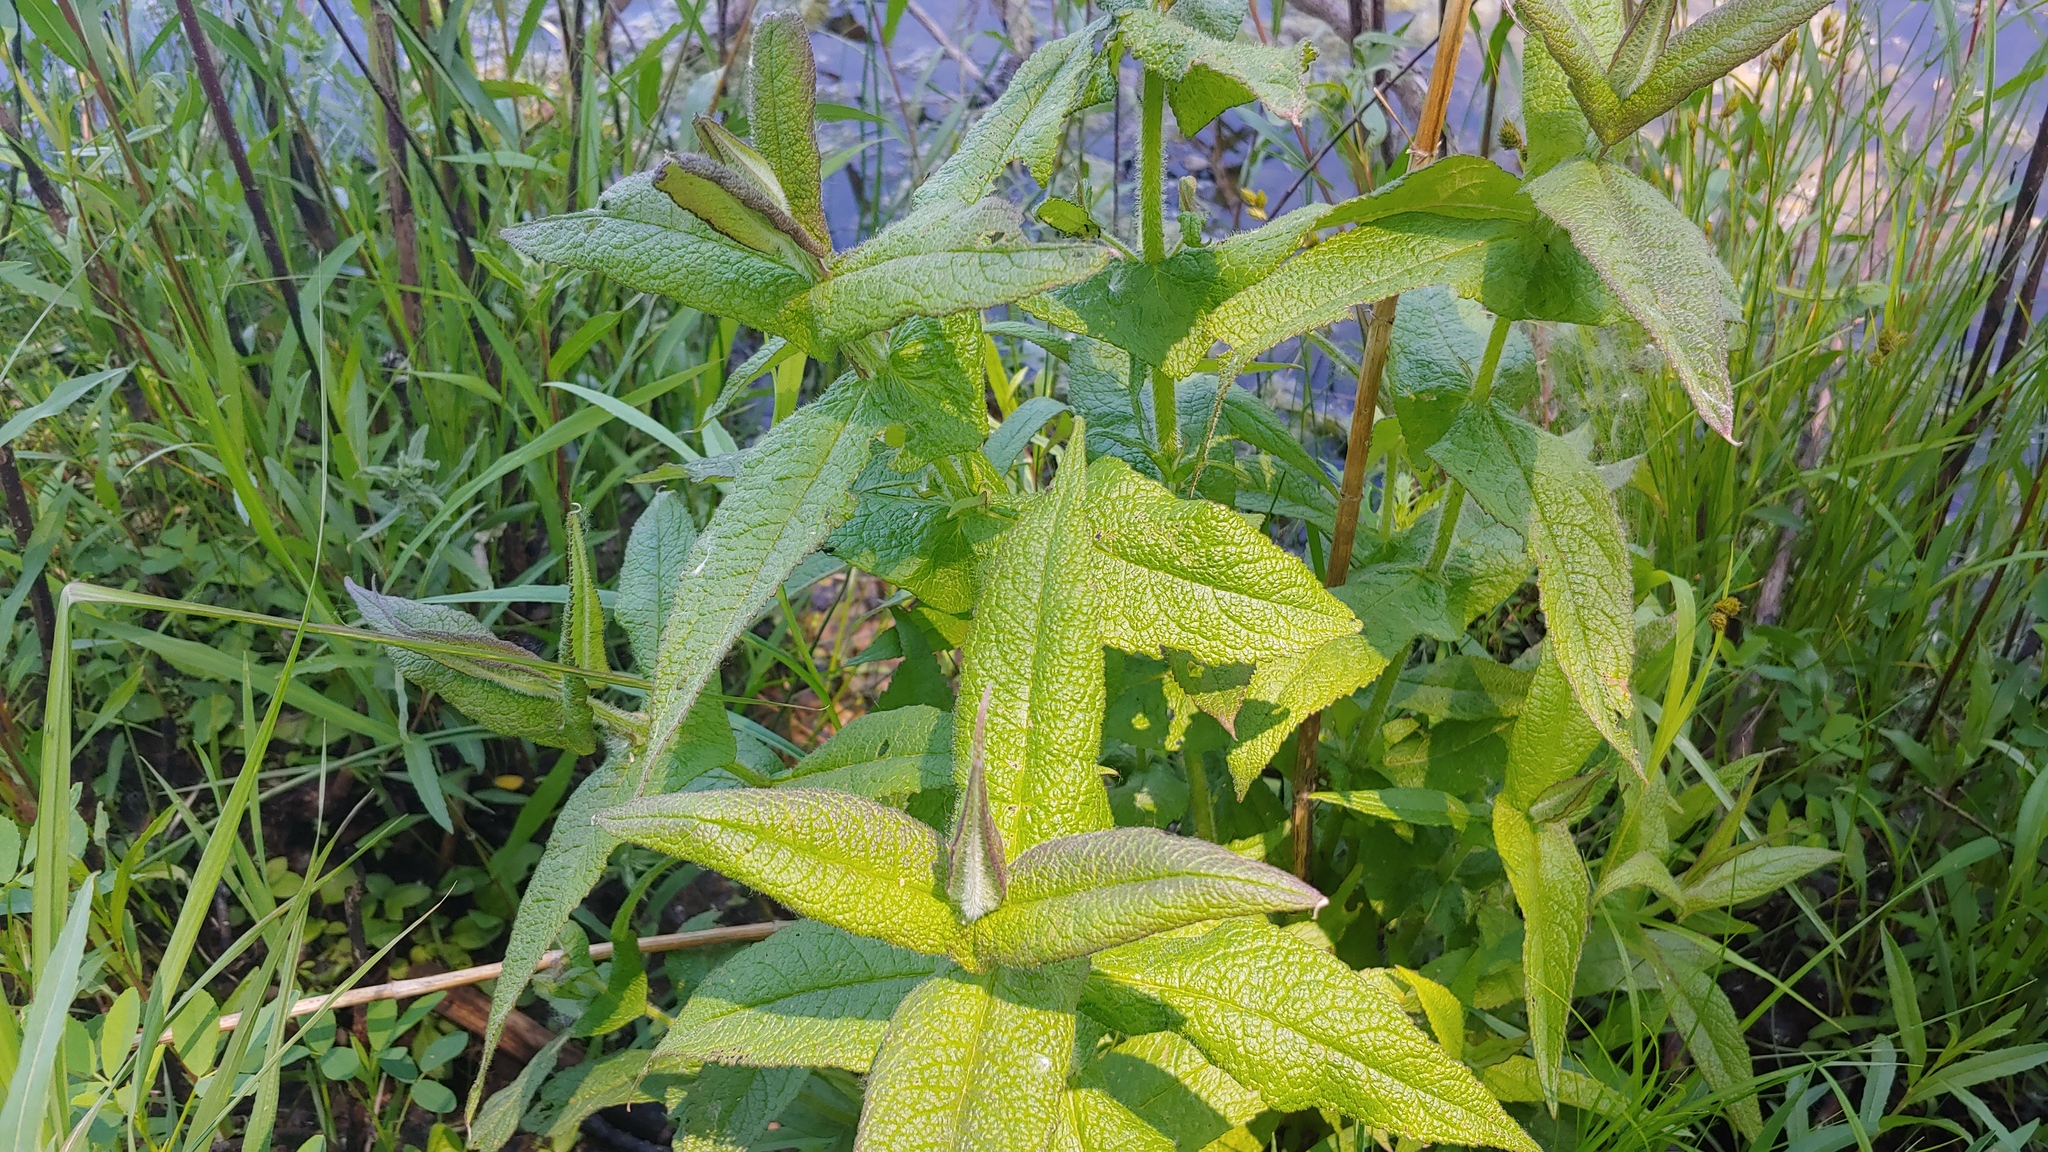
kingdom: Plantae
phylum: Tracheophyta
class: Magnoliopsida
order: Asterales
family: Asteraceae
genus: Eupatorium
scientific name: Eupatorium perfoliatum
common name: Boneset
